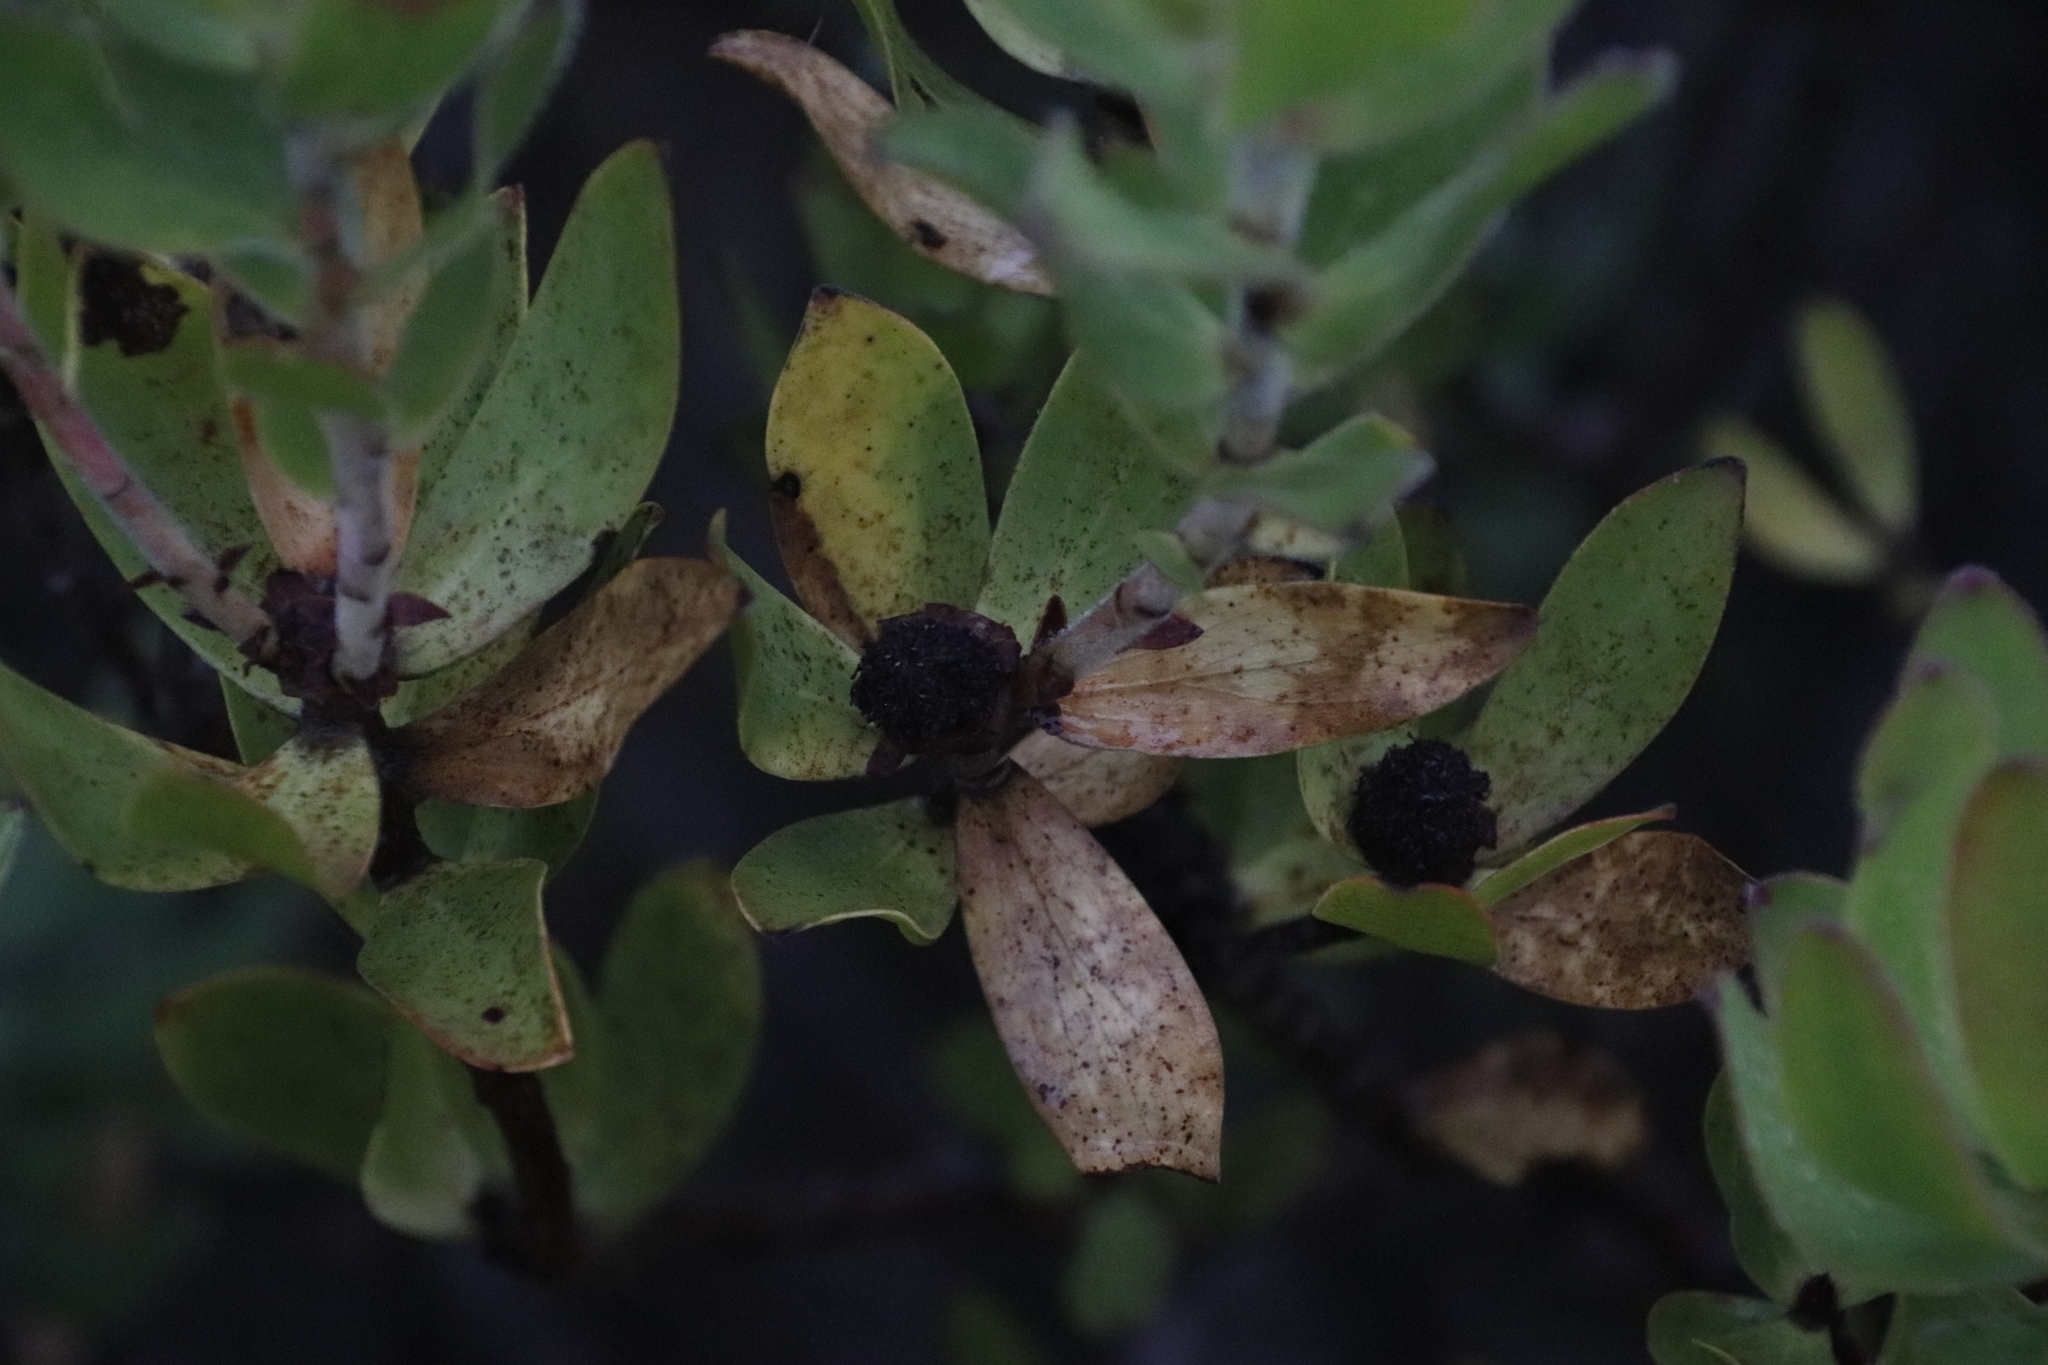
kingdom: Plantae
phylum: Tracheophyta
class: Magnoliopsida
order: Proteales
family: Proteaceae
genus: Leucadendron
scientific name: Leucadendron gandogeri
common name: Broad-leaf conebush
